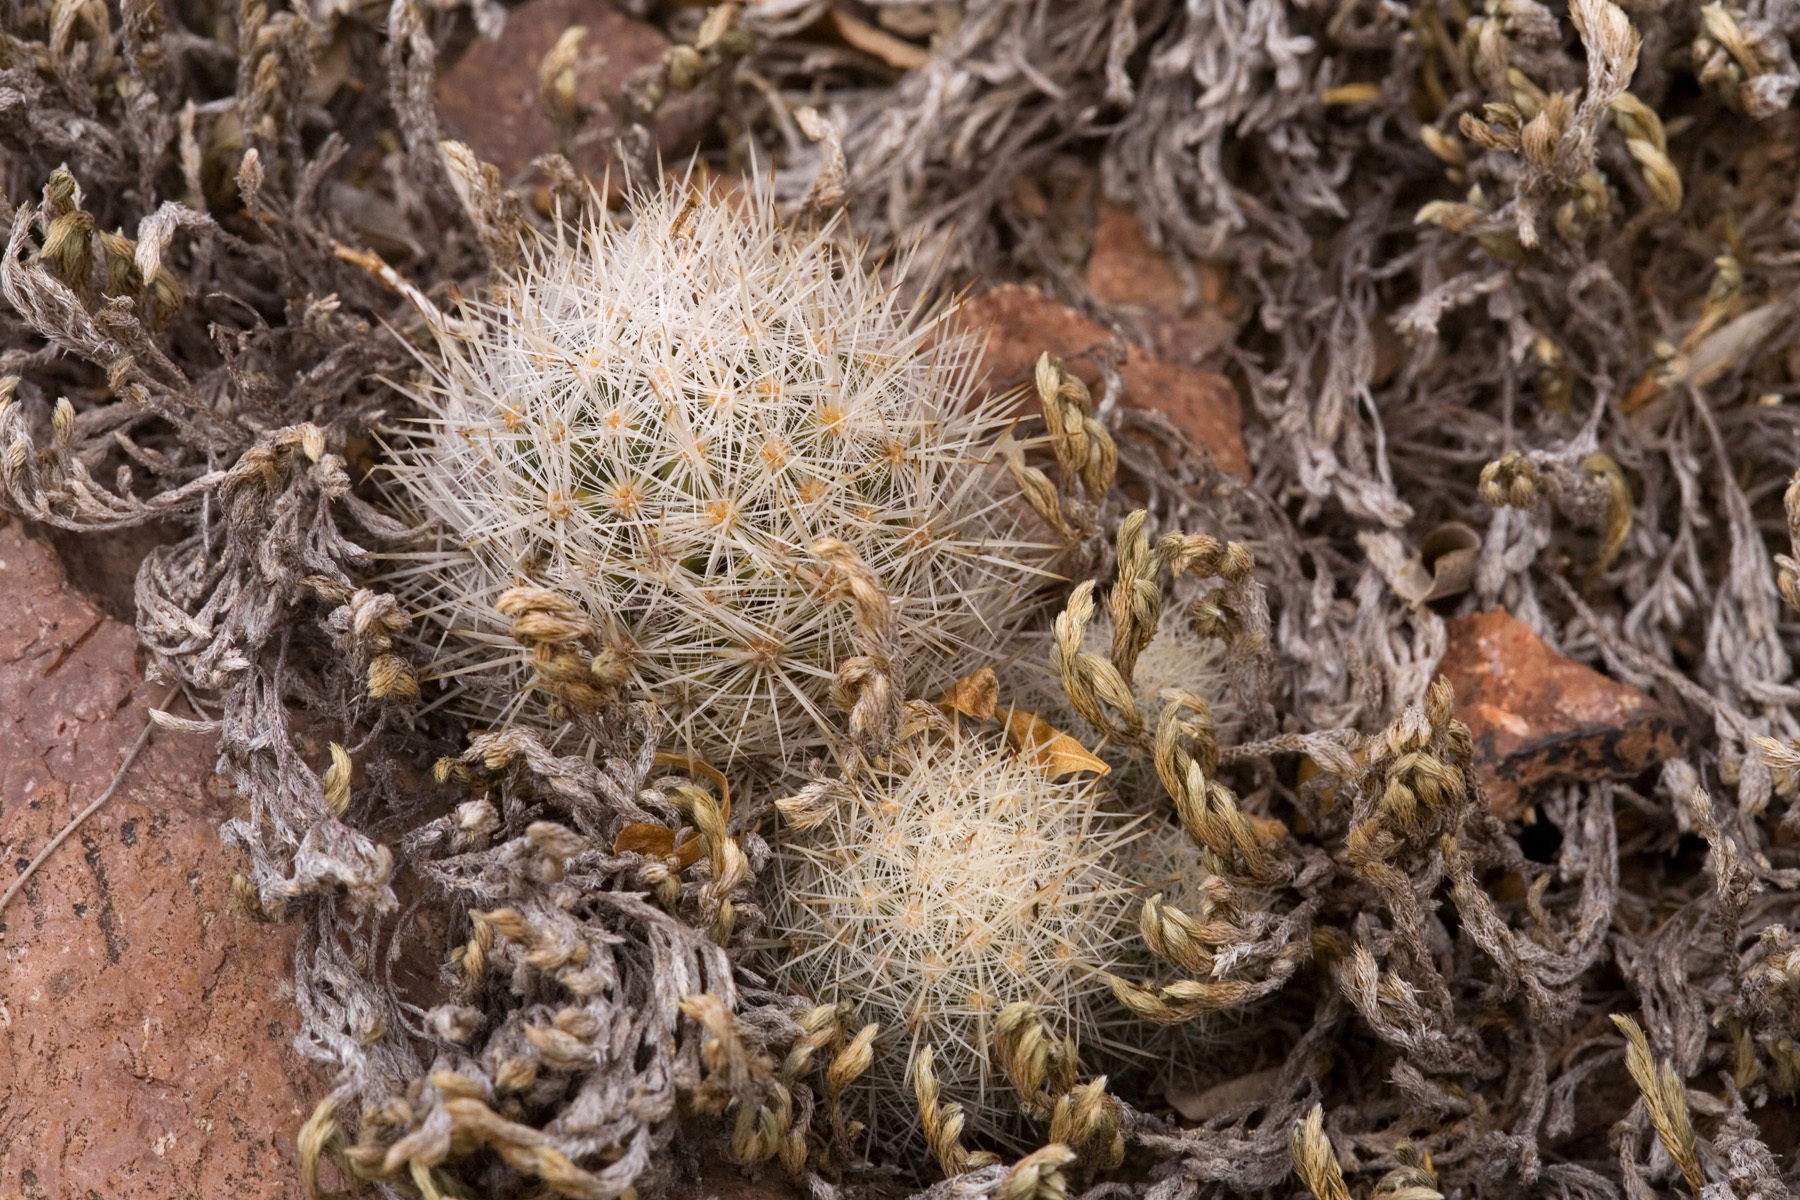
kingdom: Plantae
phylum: Tracheophyta
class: Magnoliopsida
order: Caryophyllales
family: Cactaceae
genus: Pelecyphora
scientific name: Pelecyphora sneedii
